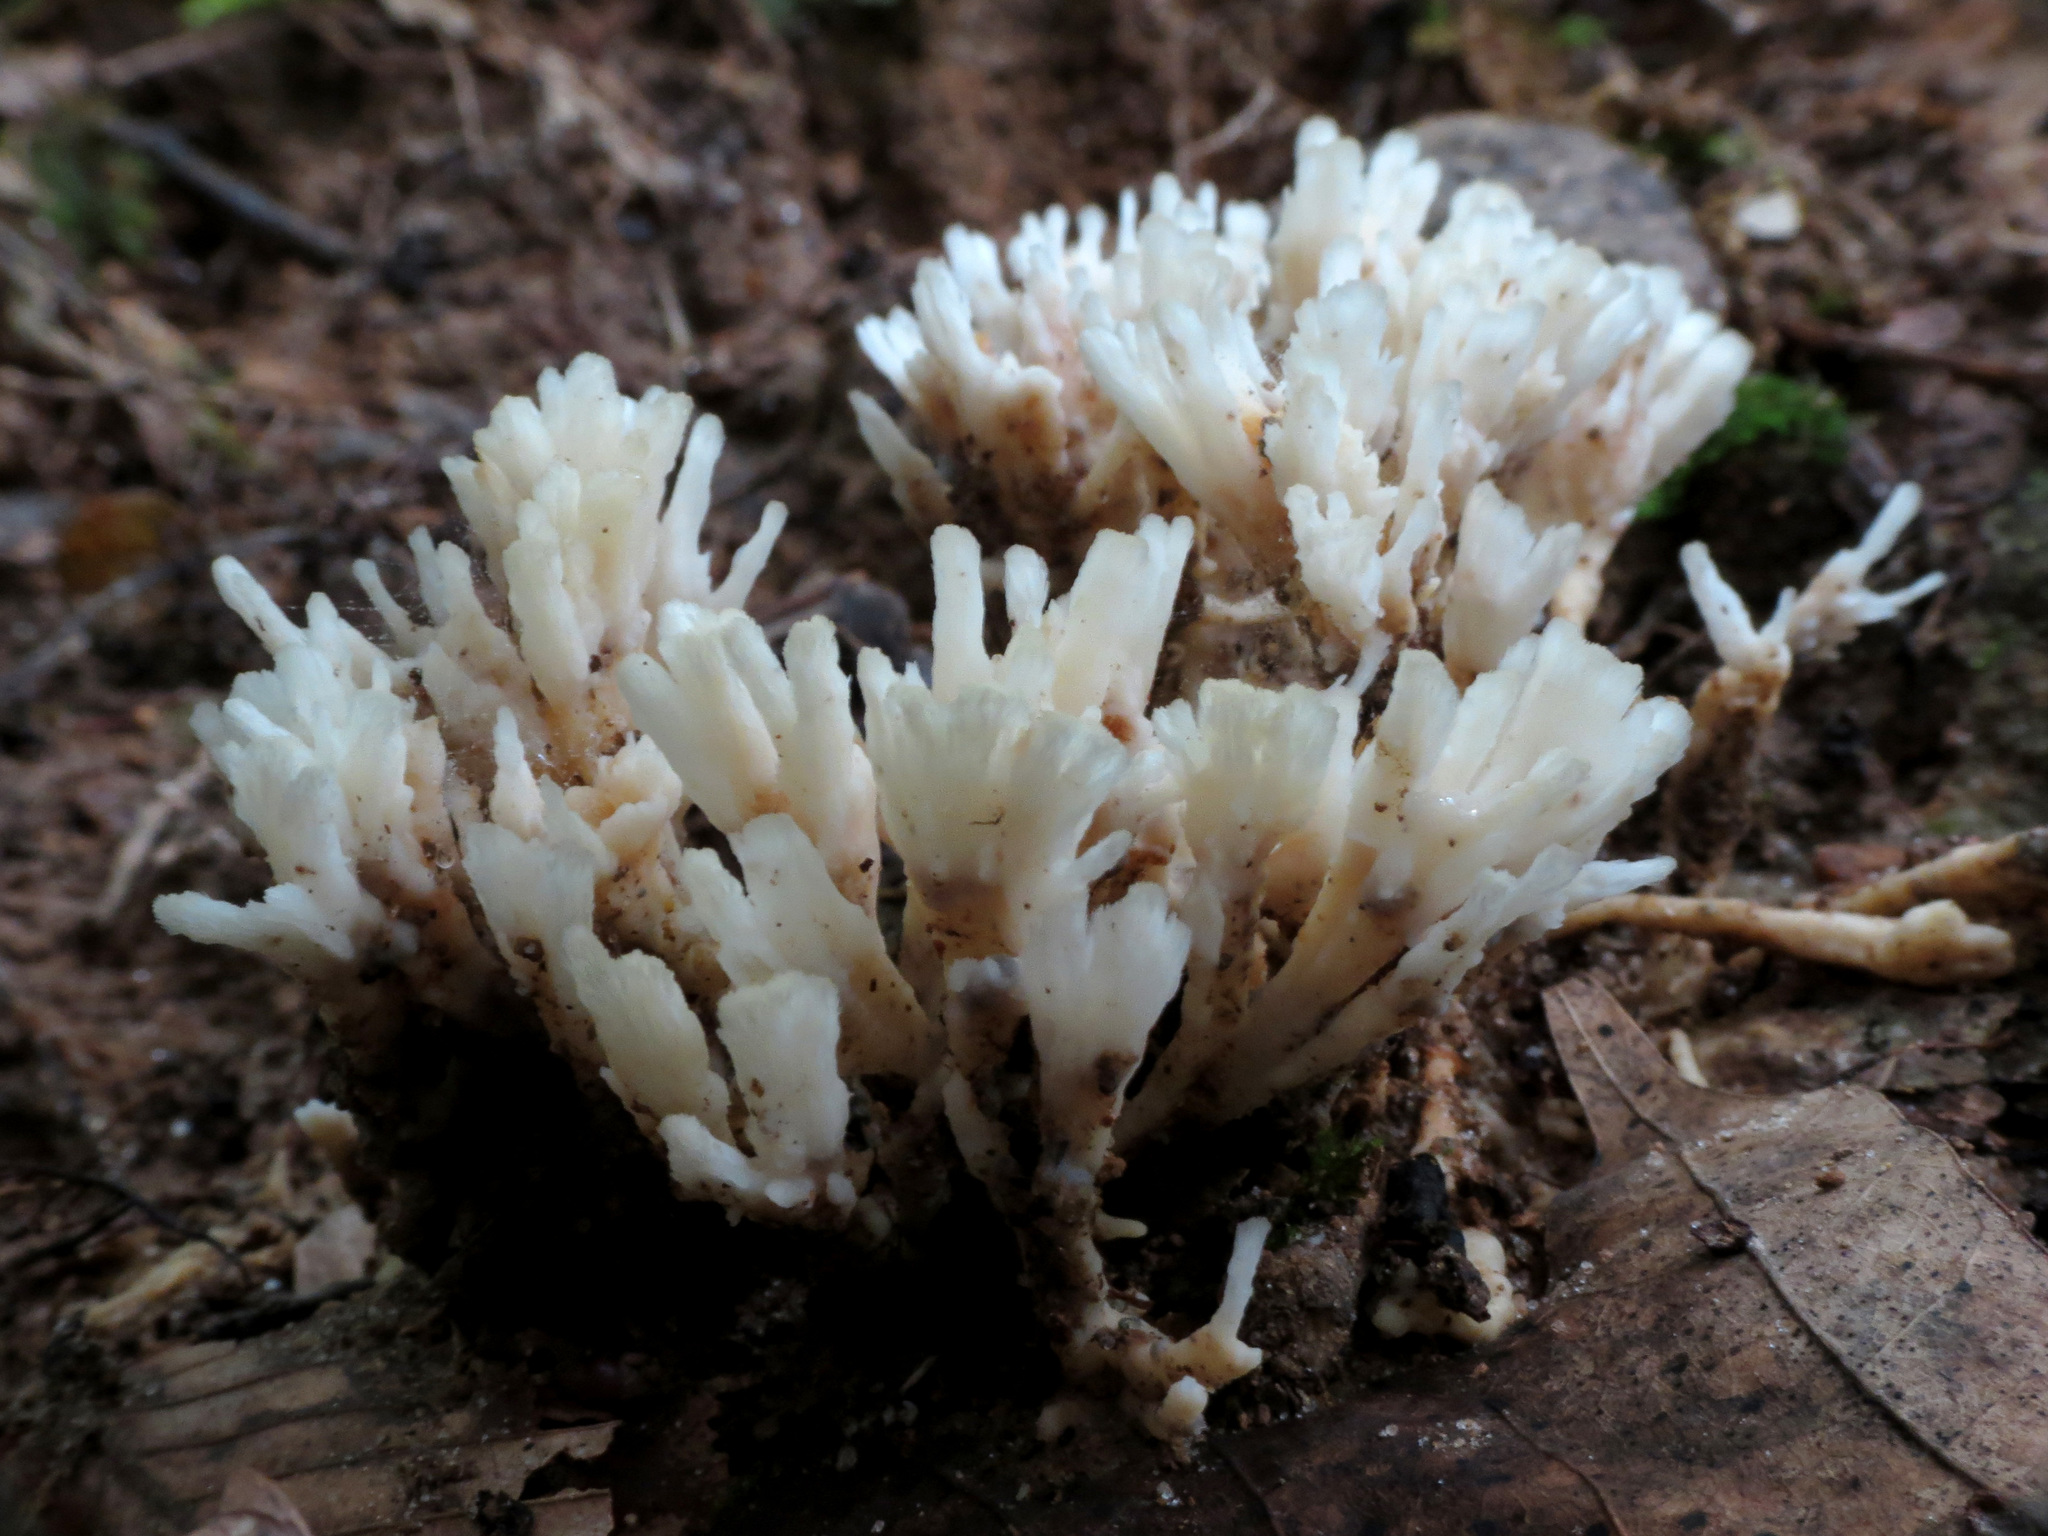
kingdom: Fungi
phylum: Basidiomycota
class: Agaricomycetes
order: Sebacinales
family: Sebacinaceae
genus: Sebacina
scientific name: Sebacina schweinitzii
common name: Jellied false coral fungus
